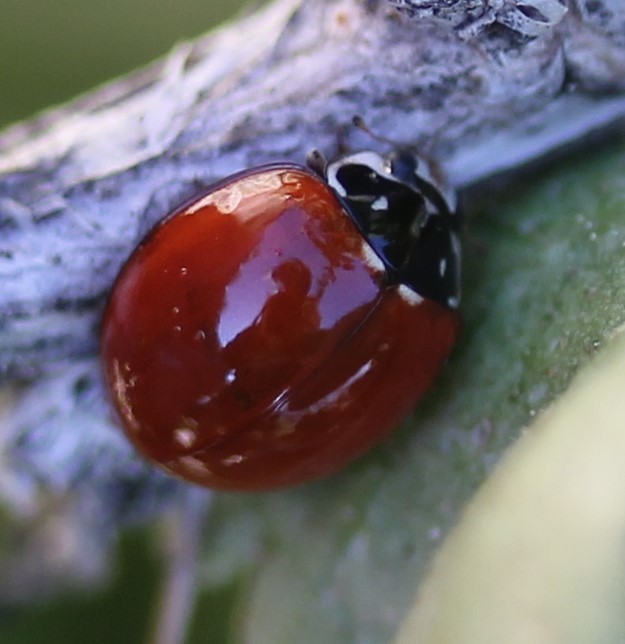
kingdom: Animalia
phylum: Arthropoda
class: Insecta
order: Coleoptera
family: Coccinellidae
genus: Cycloneda
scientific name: Cycloneda sanguinea
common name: Ladybird beetle
